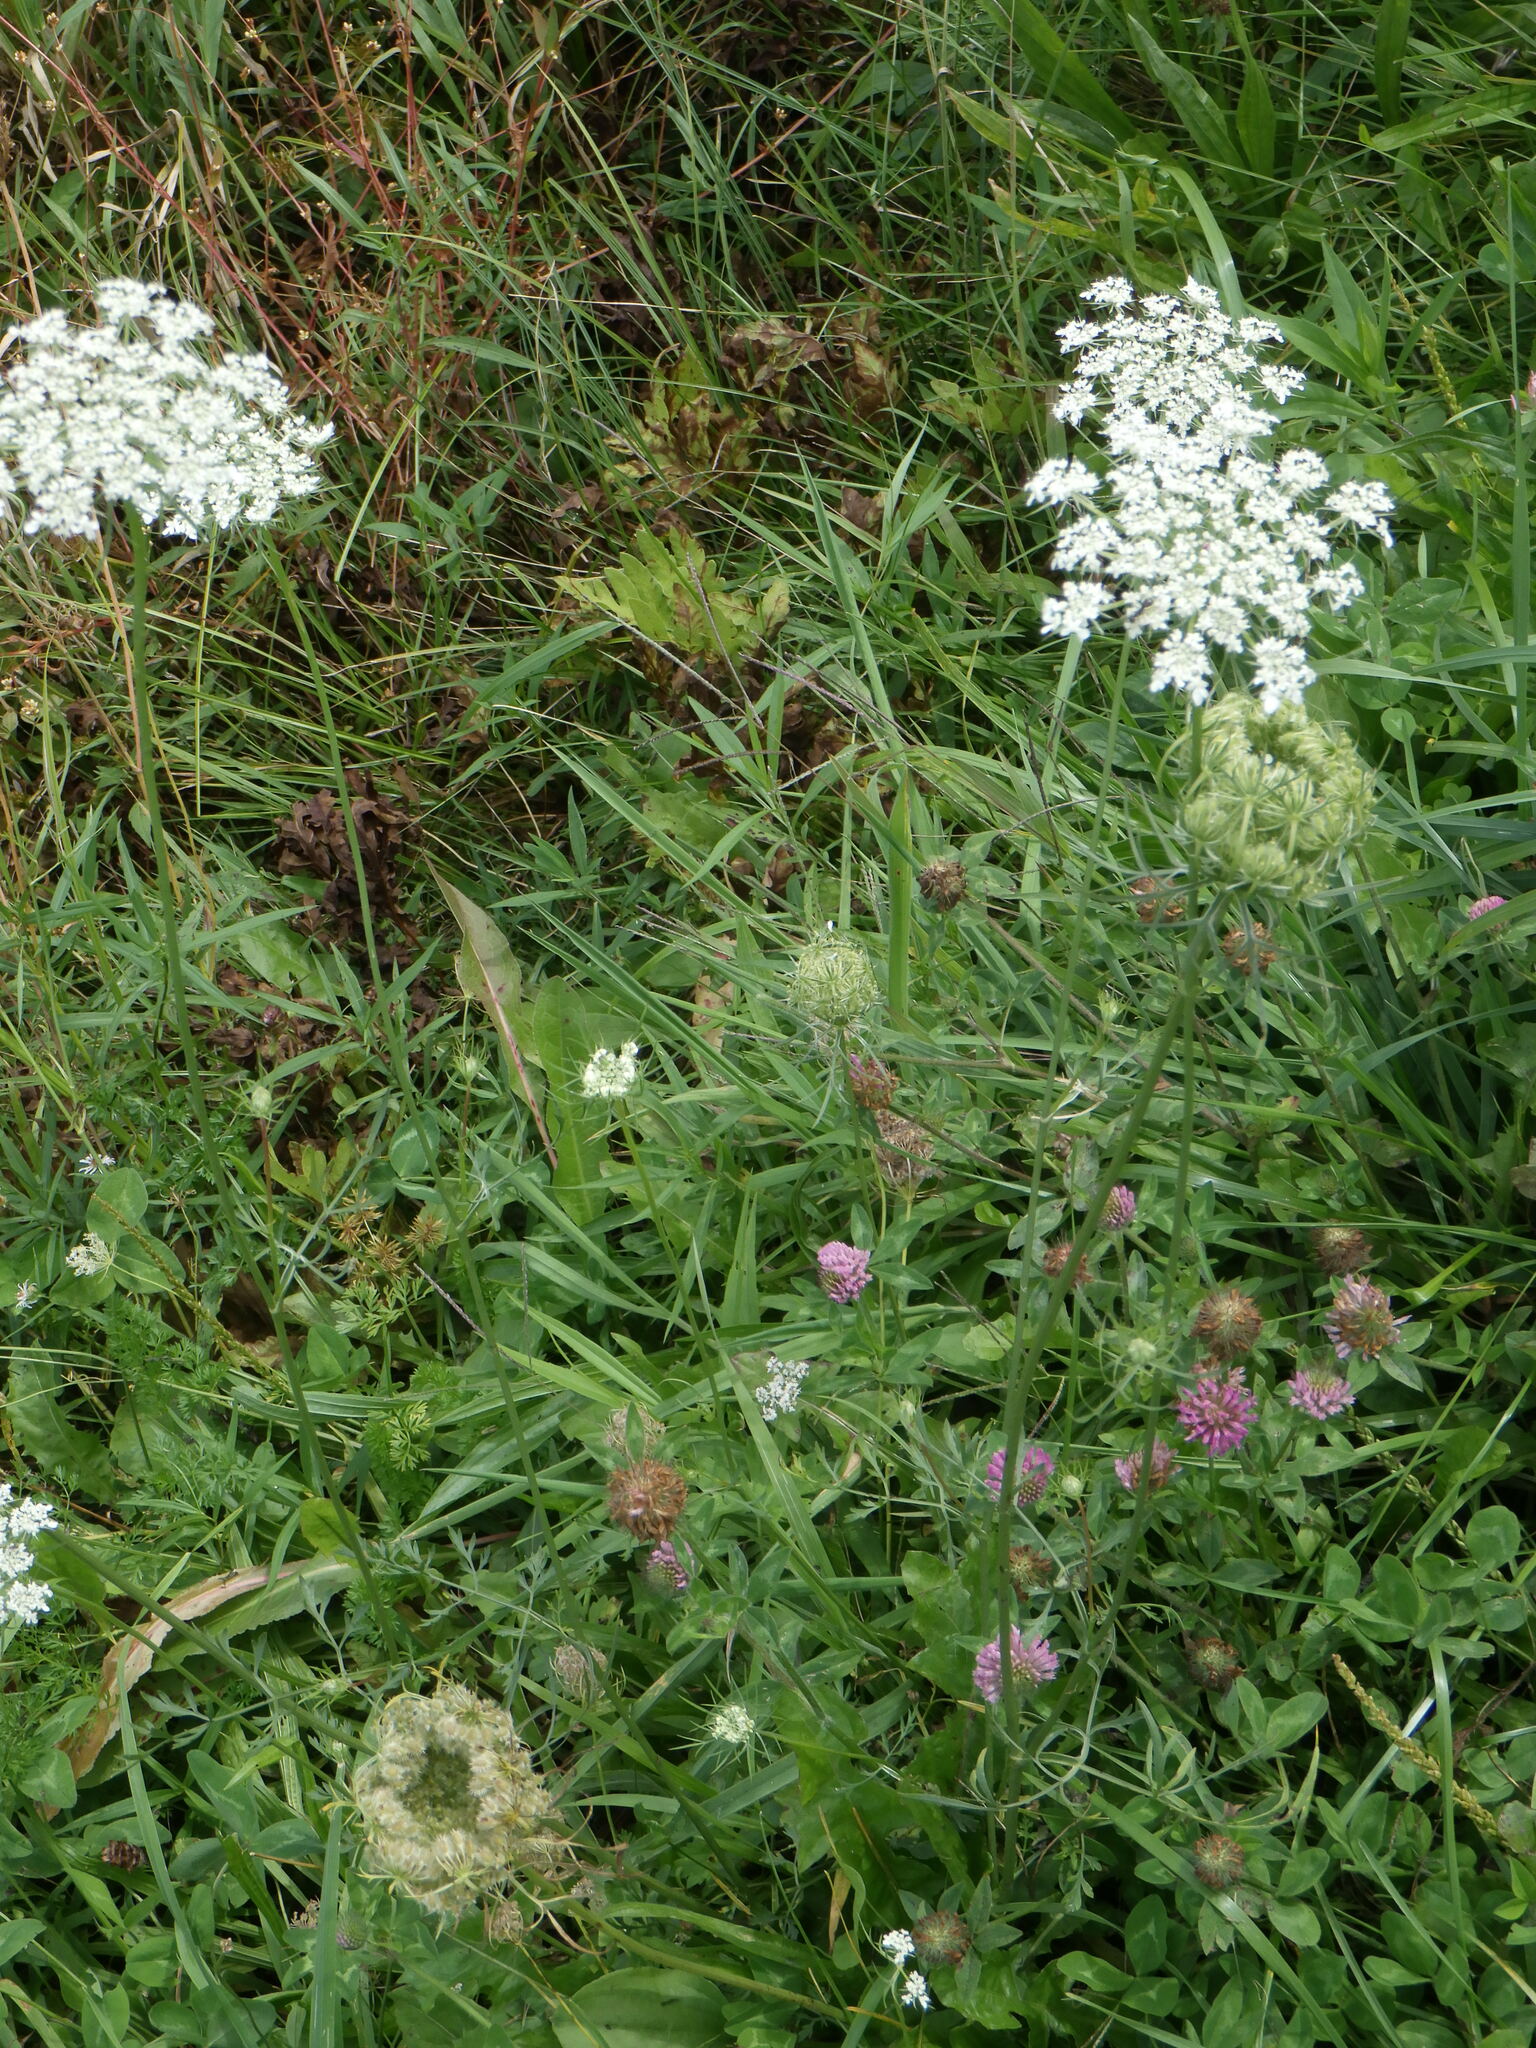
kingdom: Plantae
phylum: Tracheophyta
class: Magnoliopsida
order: Apiales
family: Apiaceae
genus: Daucus
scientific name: Daucus carota
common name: Wild carrot
